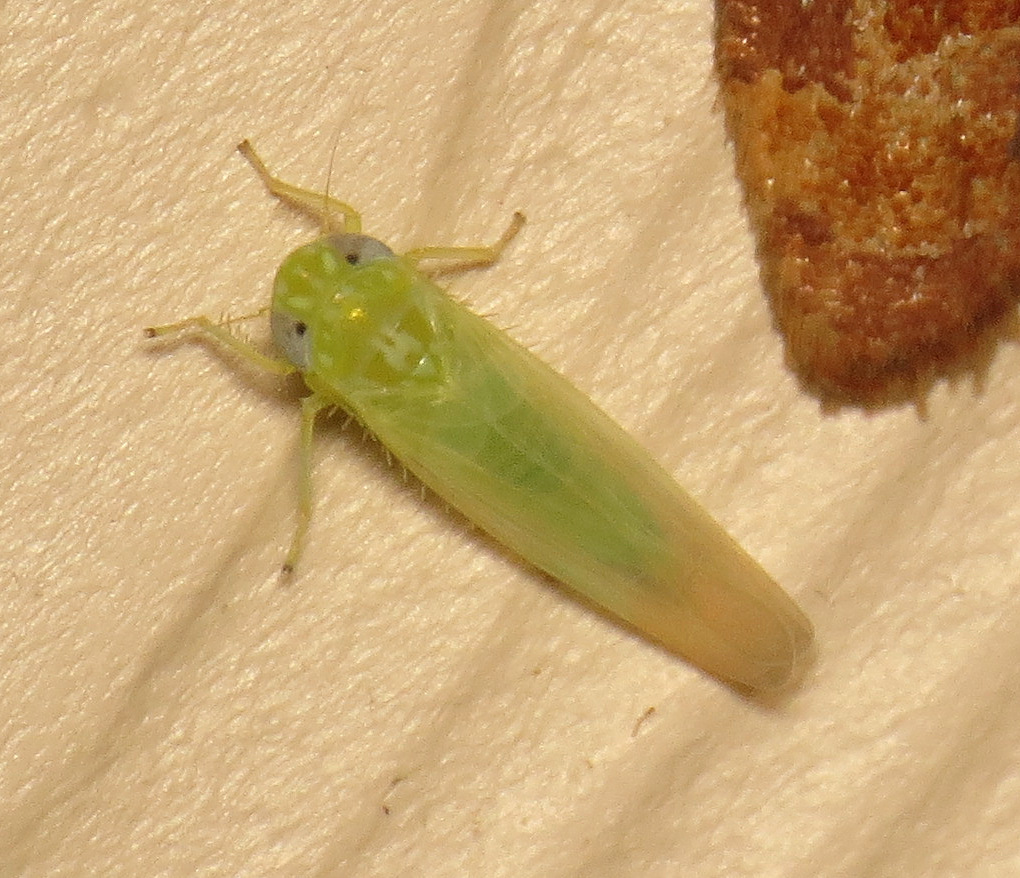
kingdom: Animalia
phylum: Arthropoda
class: Insecta
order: Hemiptera
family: Cicadellidae
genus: Empoasca
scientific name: Empoasca fabae
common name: Potato leafhopper
